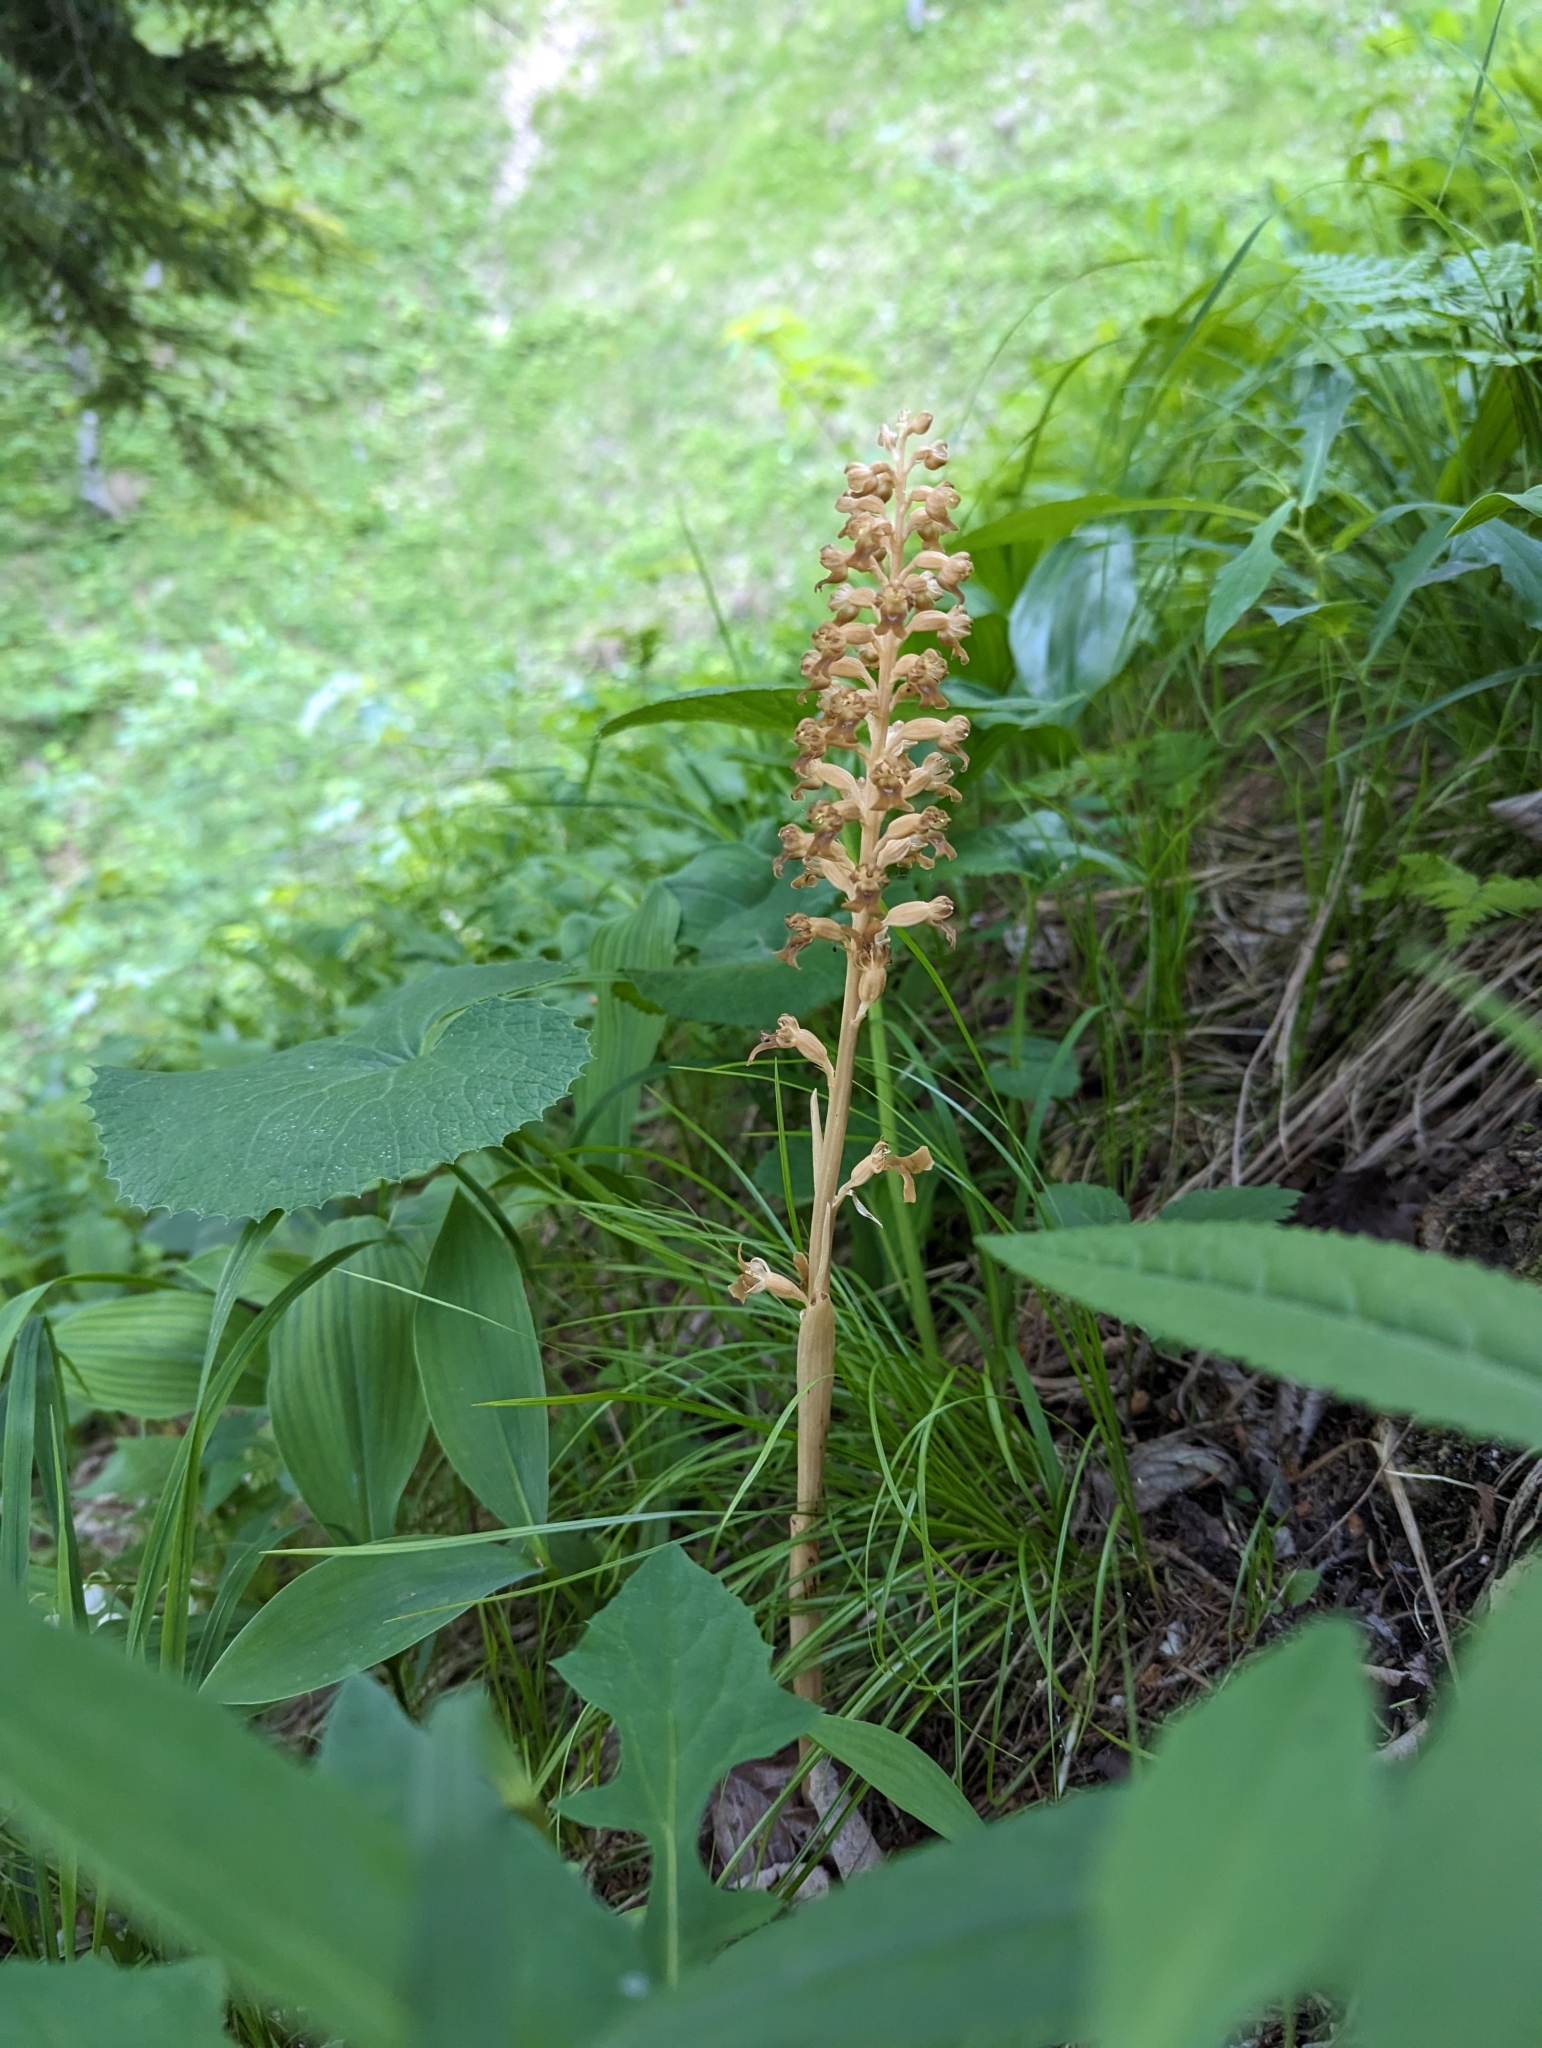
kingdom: Plantae
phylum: Tracheophyta
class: Liliopsida
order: Asparagales
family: Orchidaceae
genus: Neottia
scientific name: Neottia nidus-avis
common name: Bird's-nest orchid
